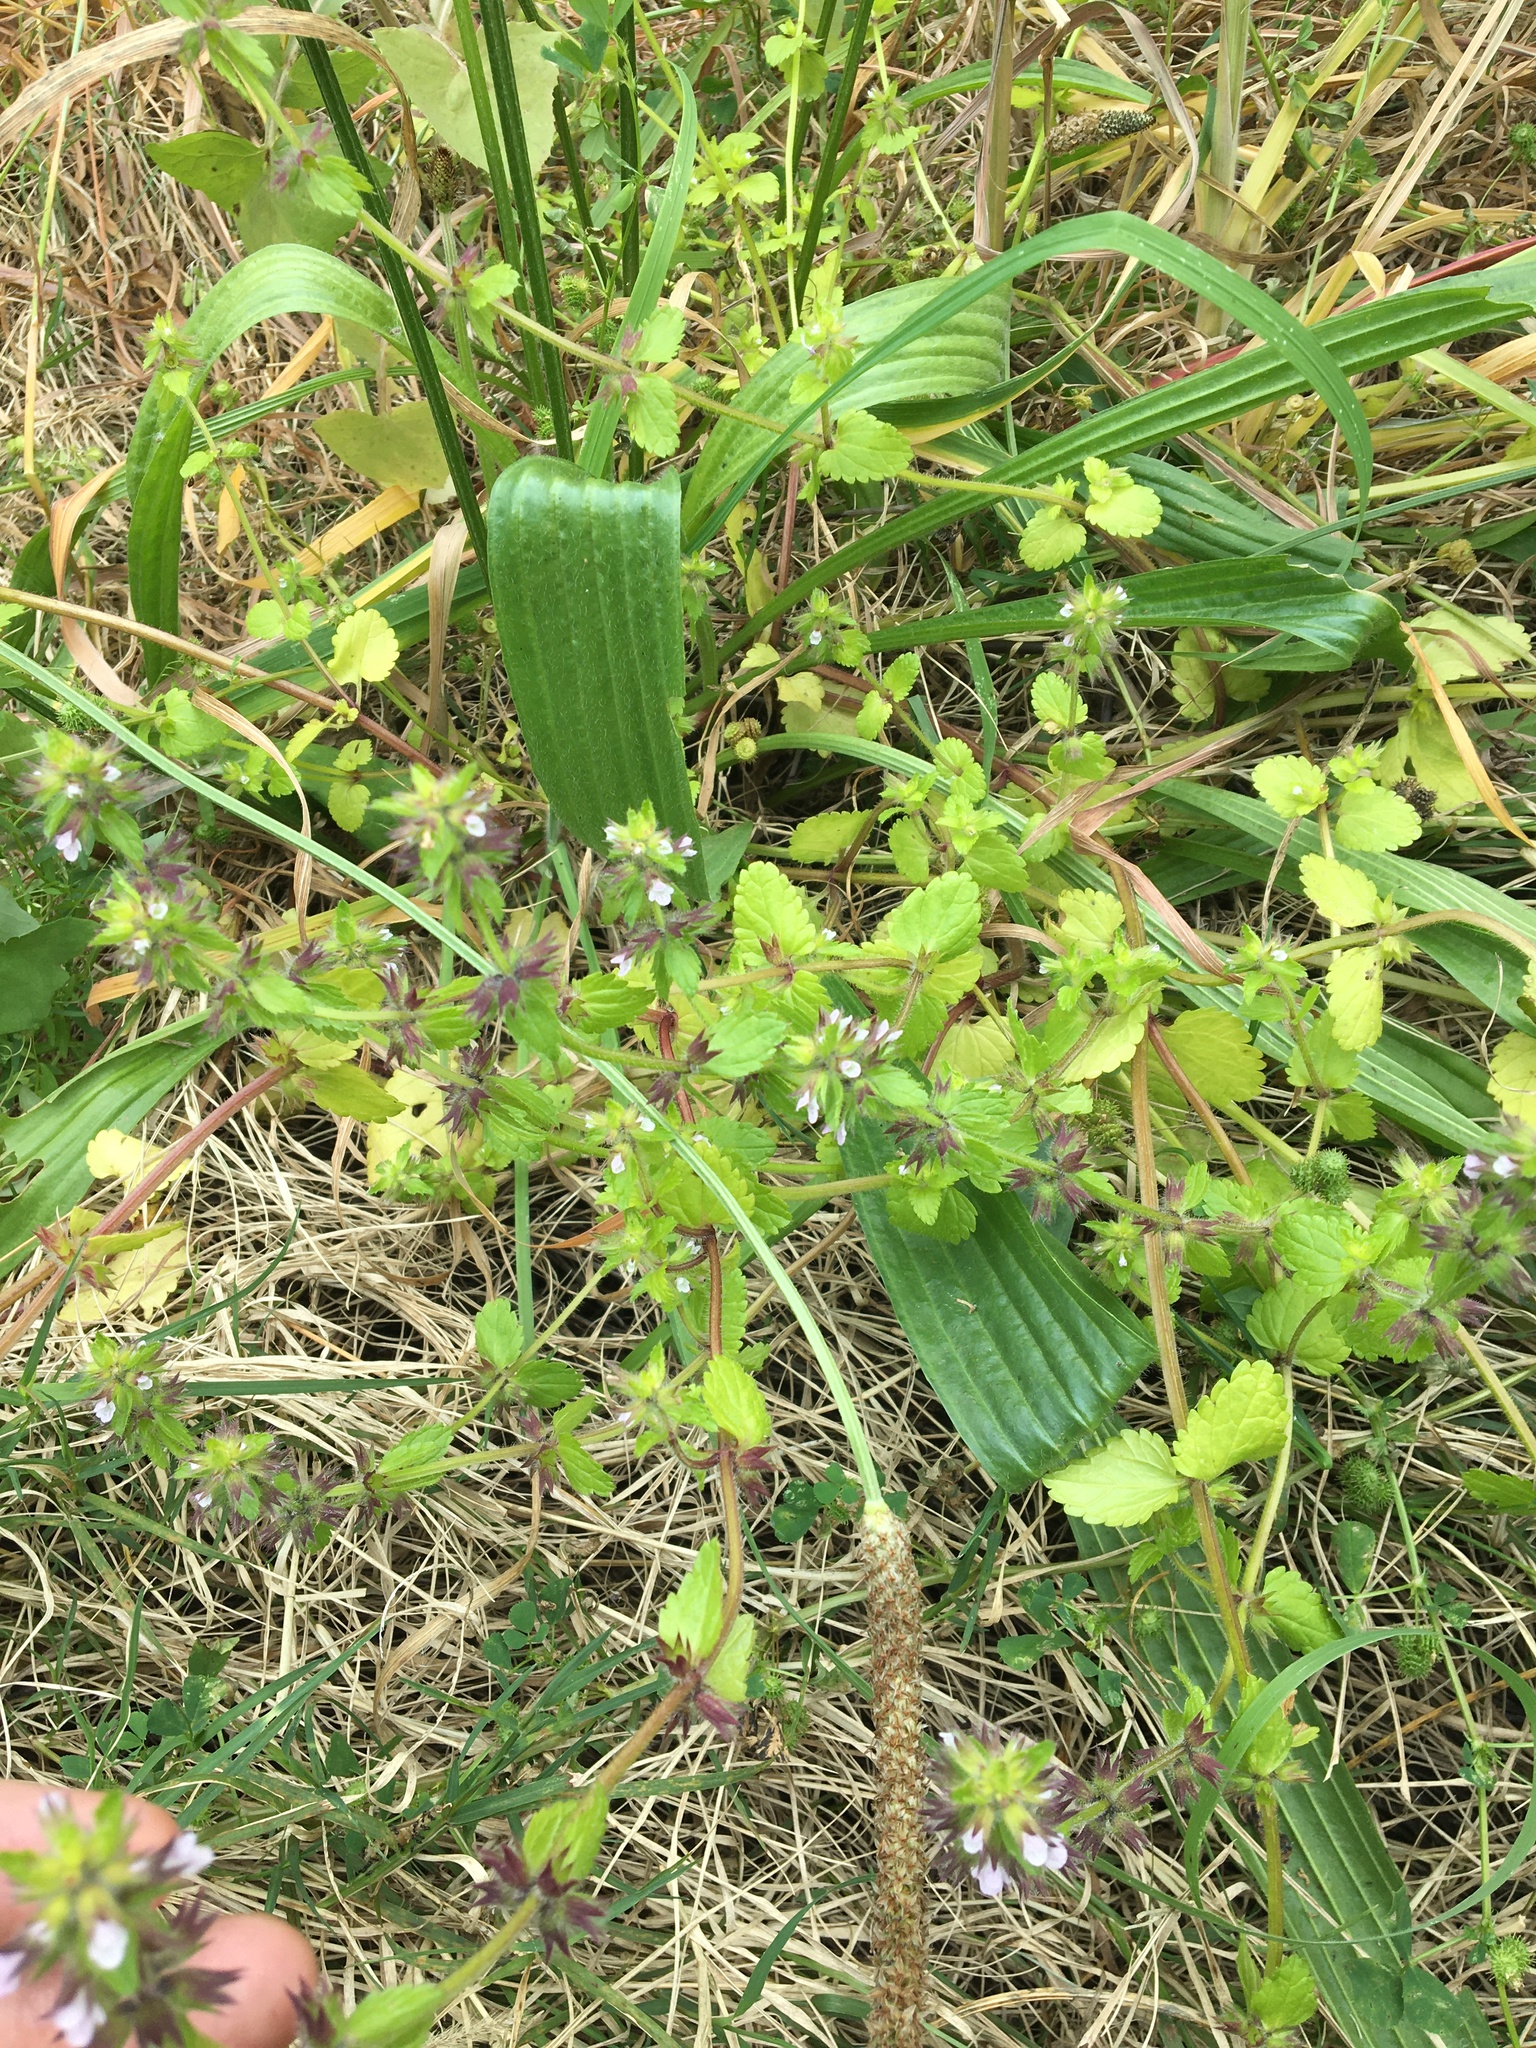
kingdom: Plantae
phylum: Tracheophyta
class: Magnoliopsida
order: Lamiales
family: Lamiaceae
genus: Stachys
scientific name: Stachys arvensis
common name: Field woundwort
